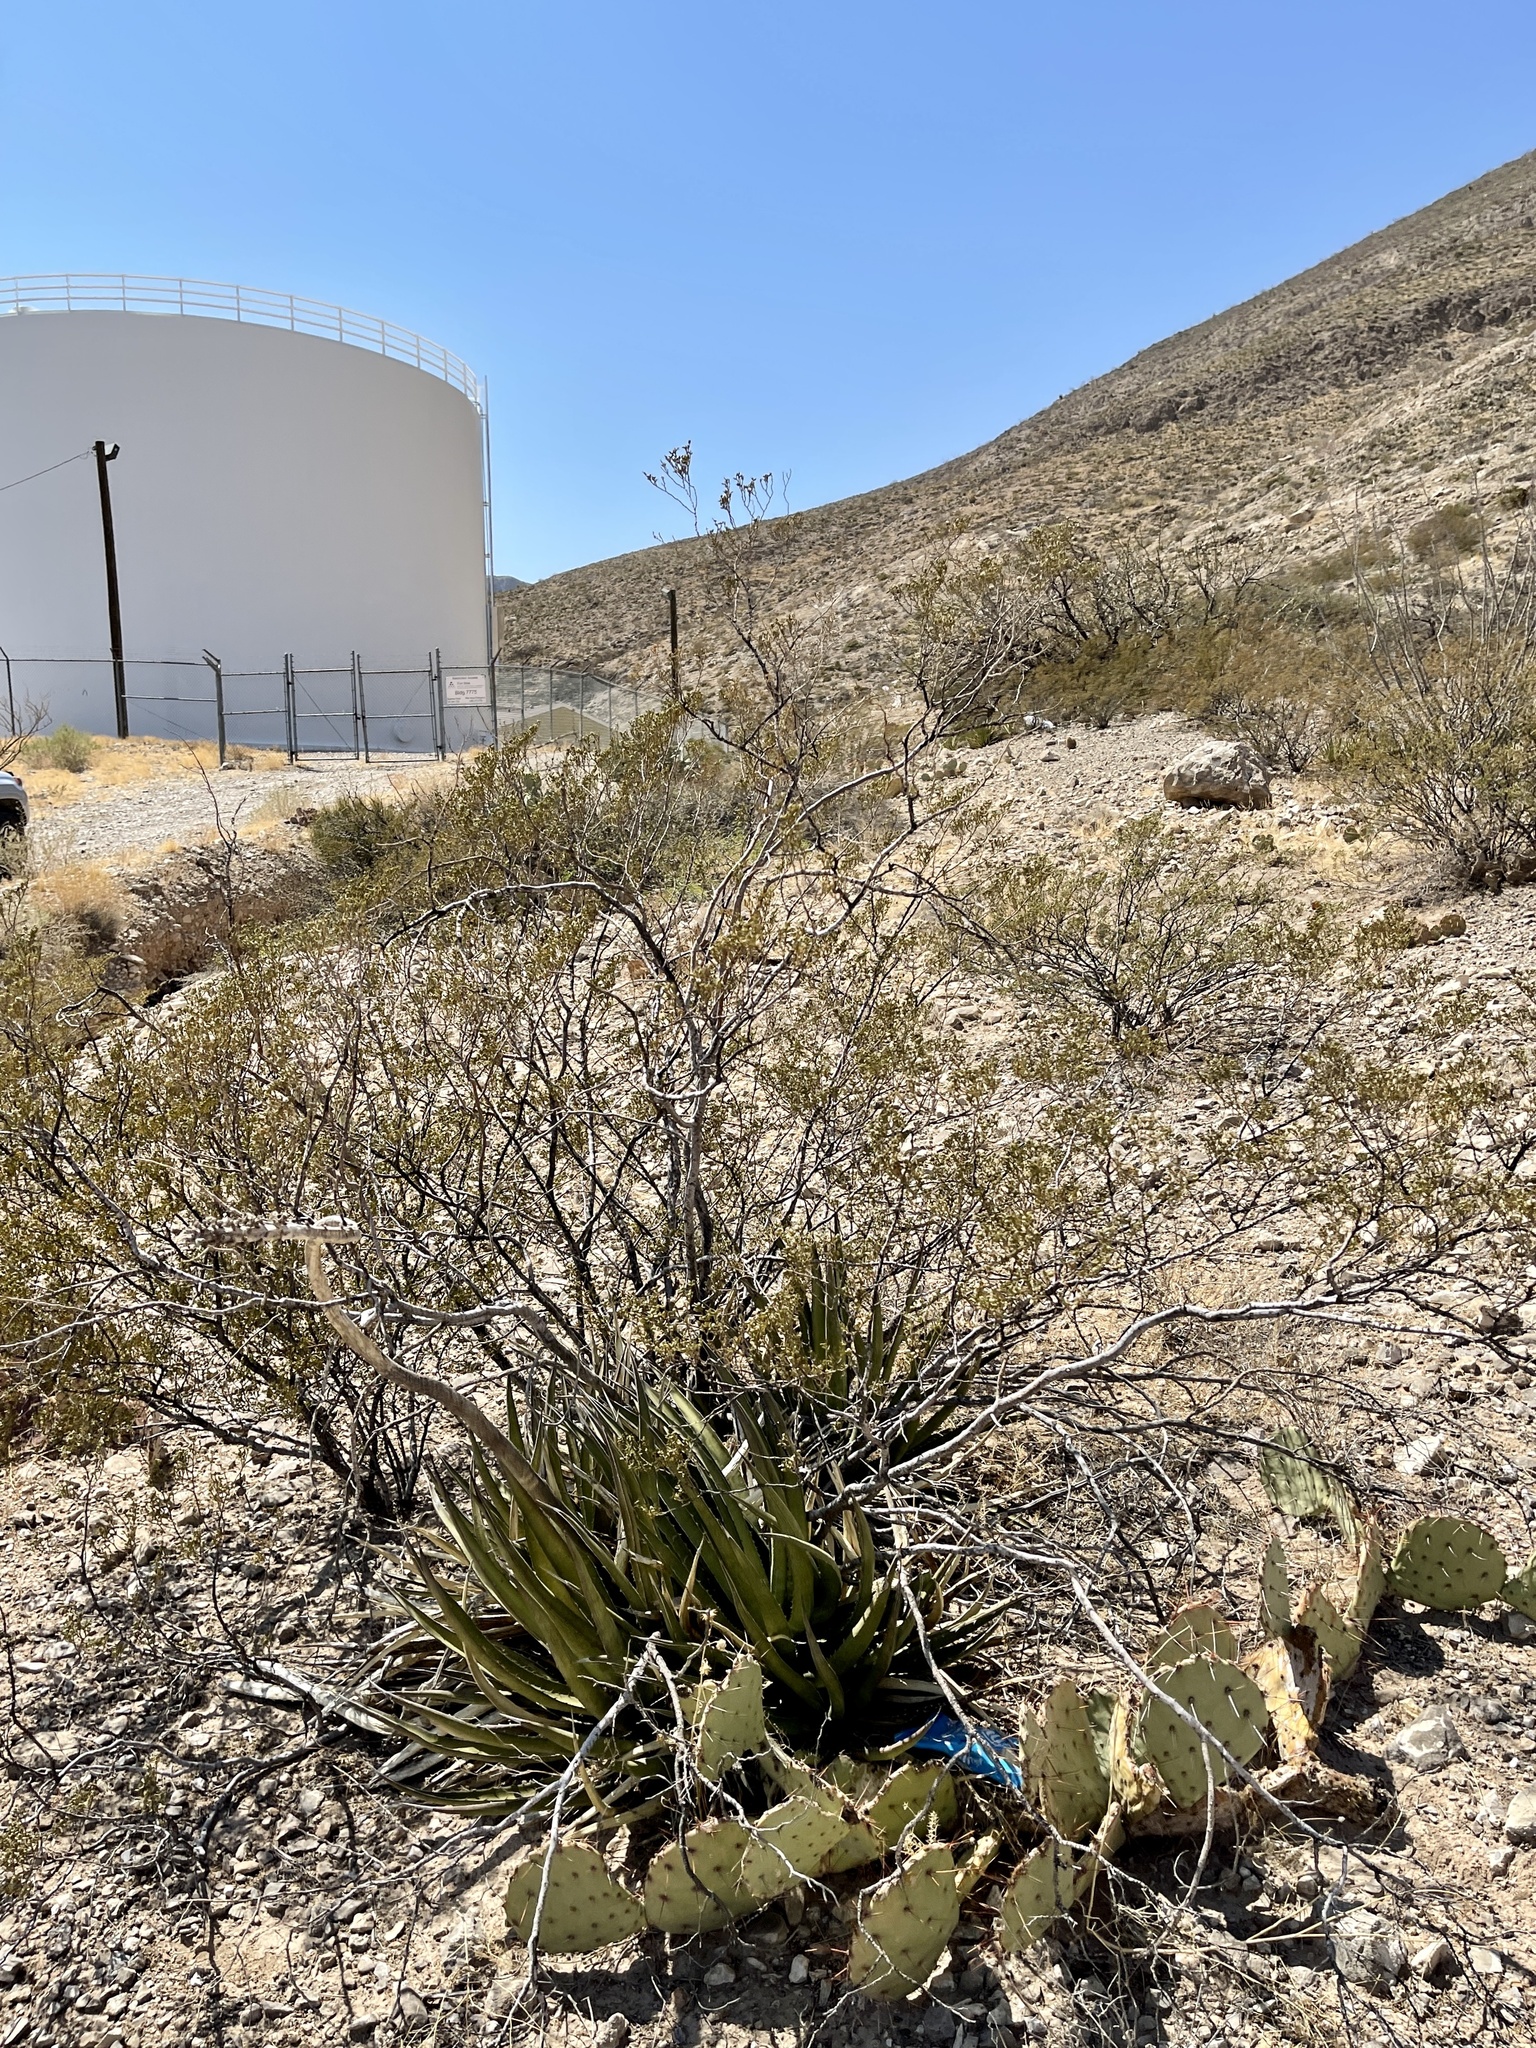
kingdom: Plantae
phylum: Tracheophyta
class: Magnoliopsida
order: Zygophyllales
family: Zygophyllaceae
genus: Larrea
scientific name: Larrea tridentata
